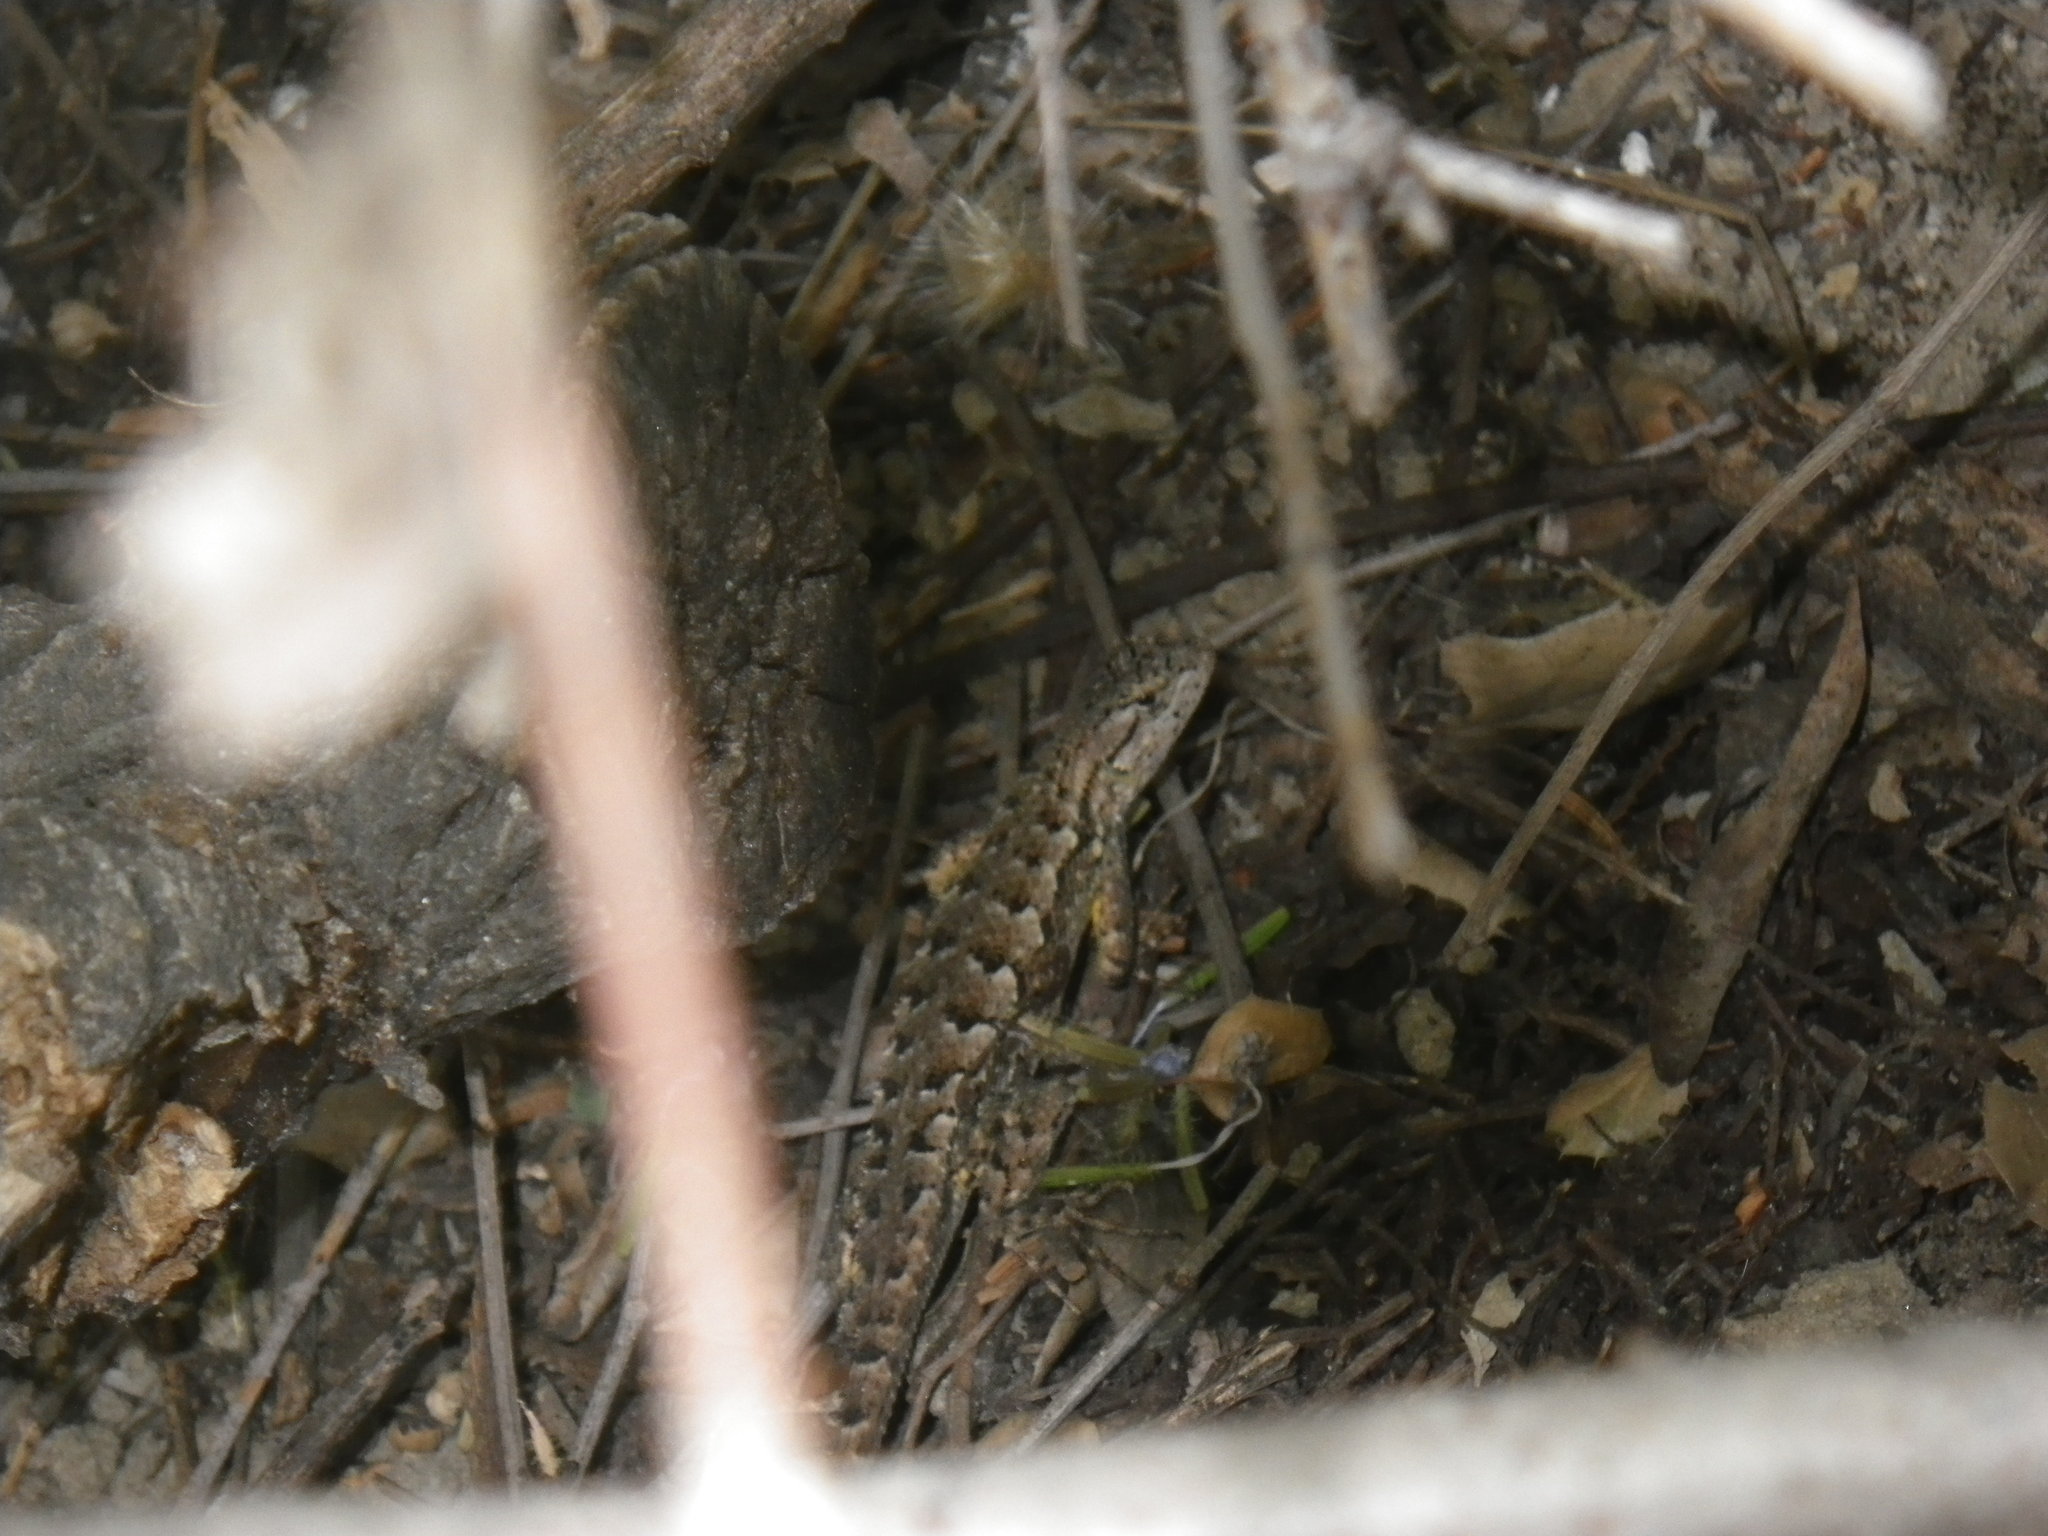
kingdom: Animalia
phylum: Chordata
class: Squamata
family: Phrynosomatidae
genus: Sceloporus
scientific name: Sceloporus occidentalis
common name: Western fence lizard
